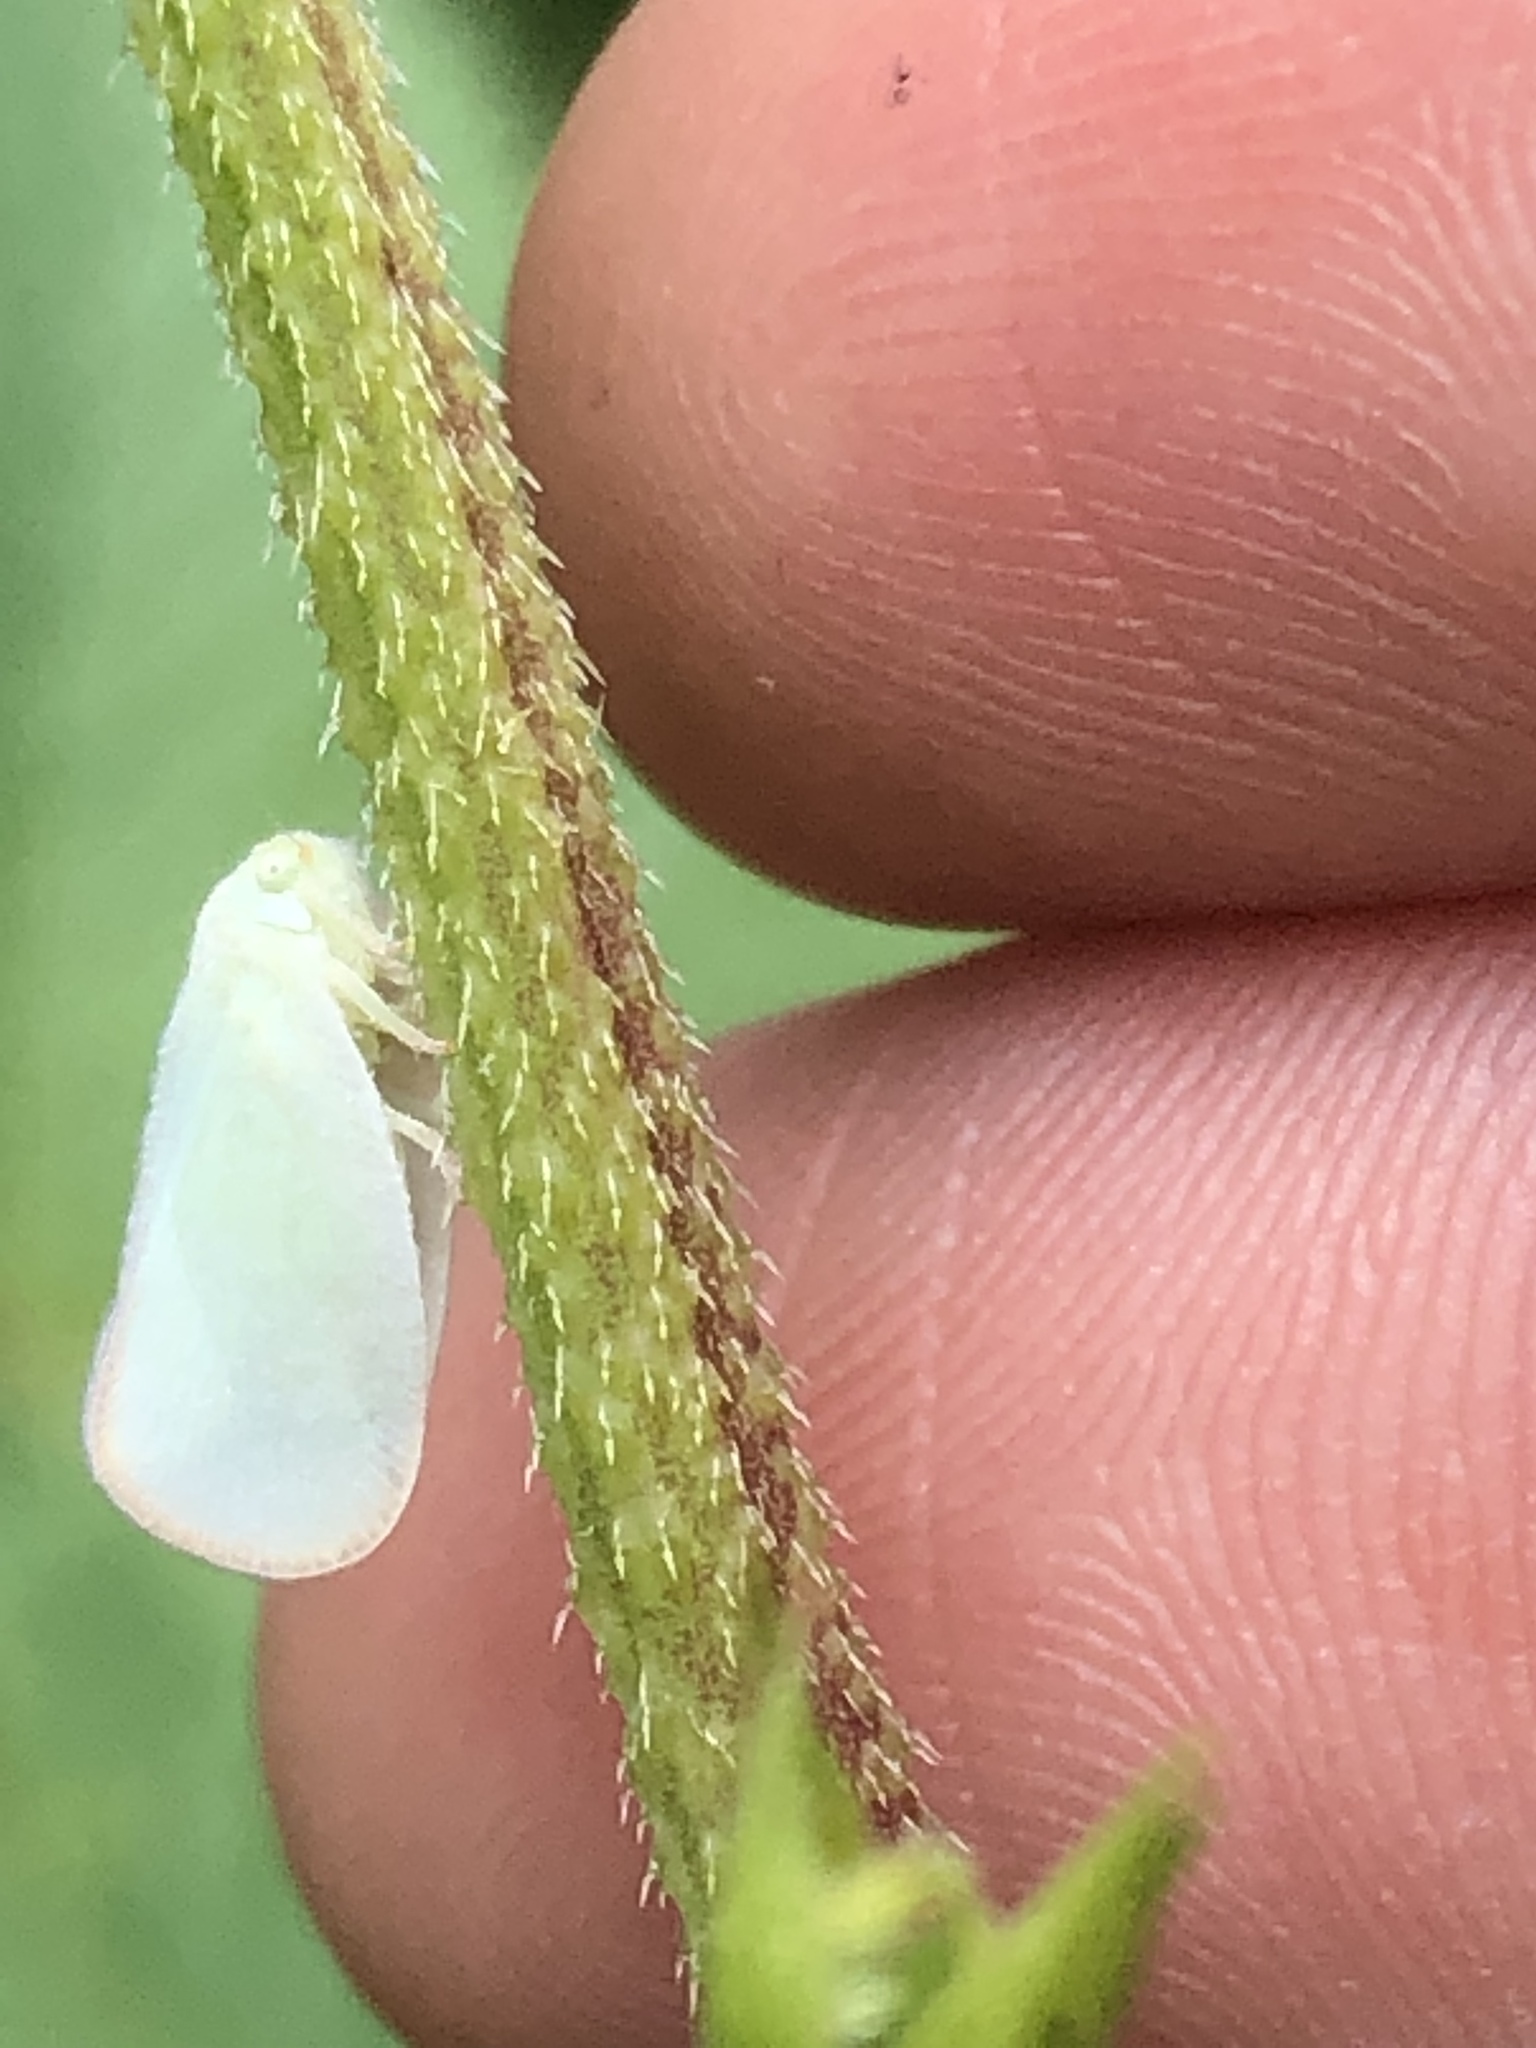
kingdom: Animalia
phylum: Arthropoda
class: Insecta
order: Hemiptera
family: Flatidae
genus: Flatormenis
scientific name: Flatormenis proxima
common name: Northern flatid planthopper
